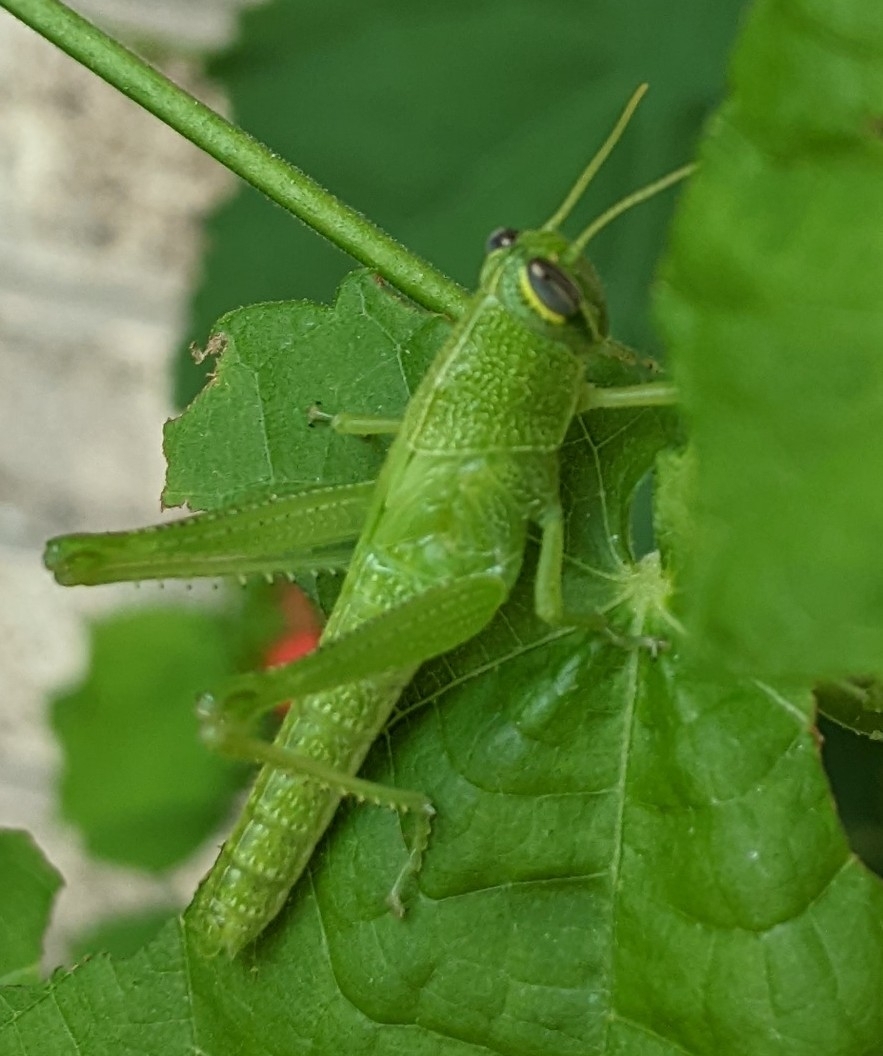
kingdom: Animalia
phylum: Arthropoda
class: Insecta
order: Orthoptera
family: Acrididae
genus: Schistocerca
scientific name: Schistocerca obscura
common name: Obscure bird grasshopper
